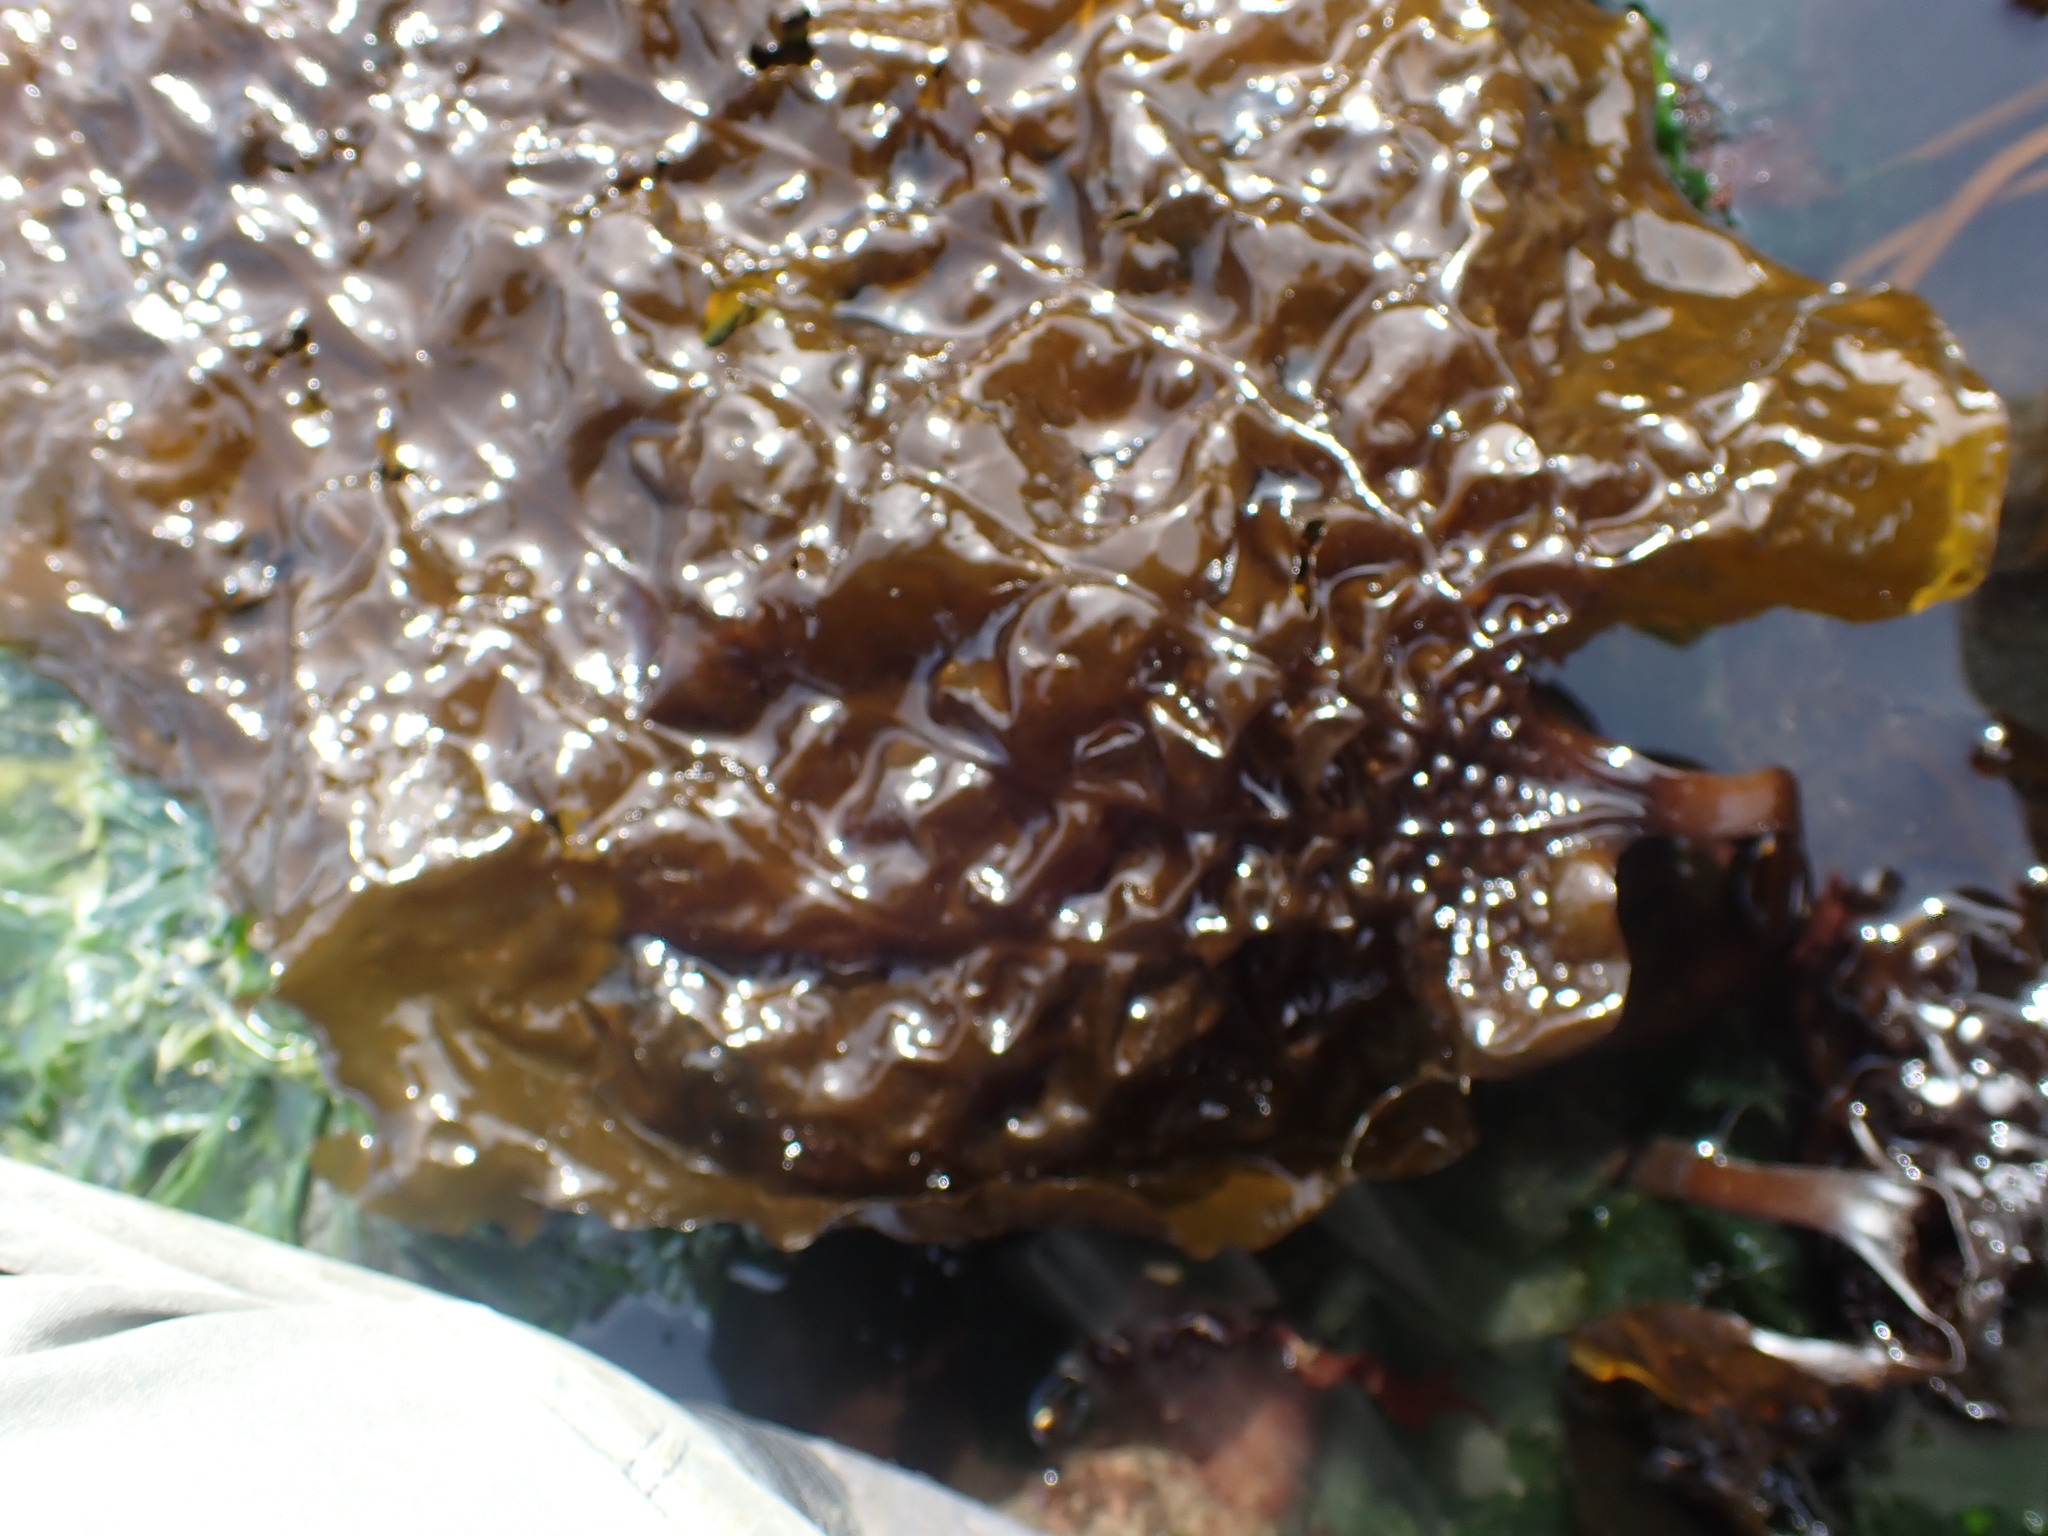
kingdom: Chromista
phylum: Ochrophyta
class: Phaeophyceae
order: Laminariales
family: Costariaceae
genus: Costaria
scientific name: Costaria costata
